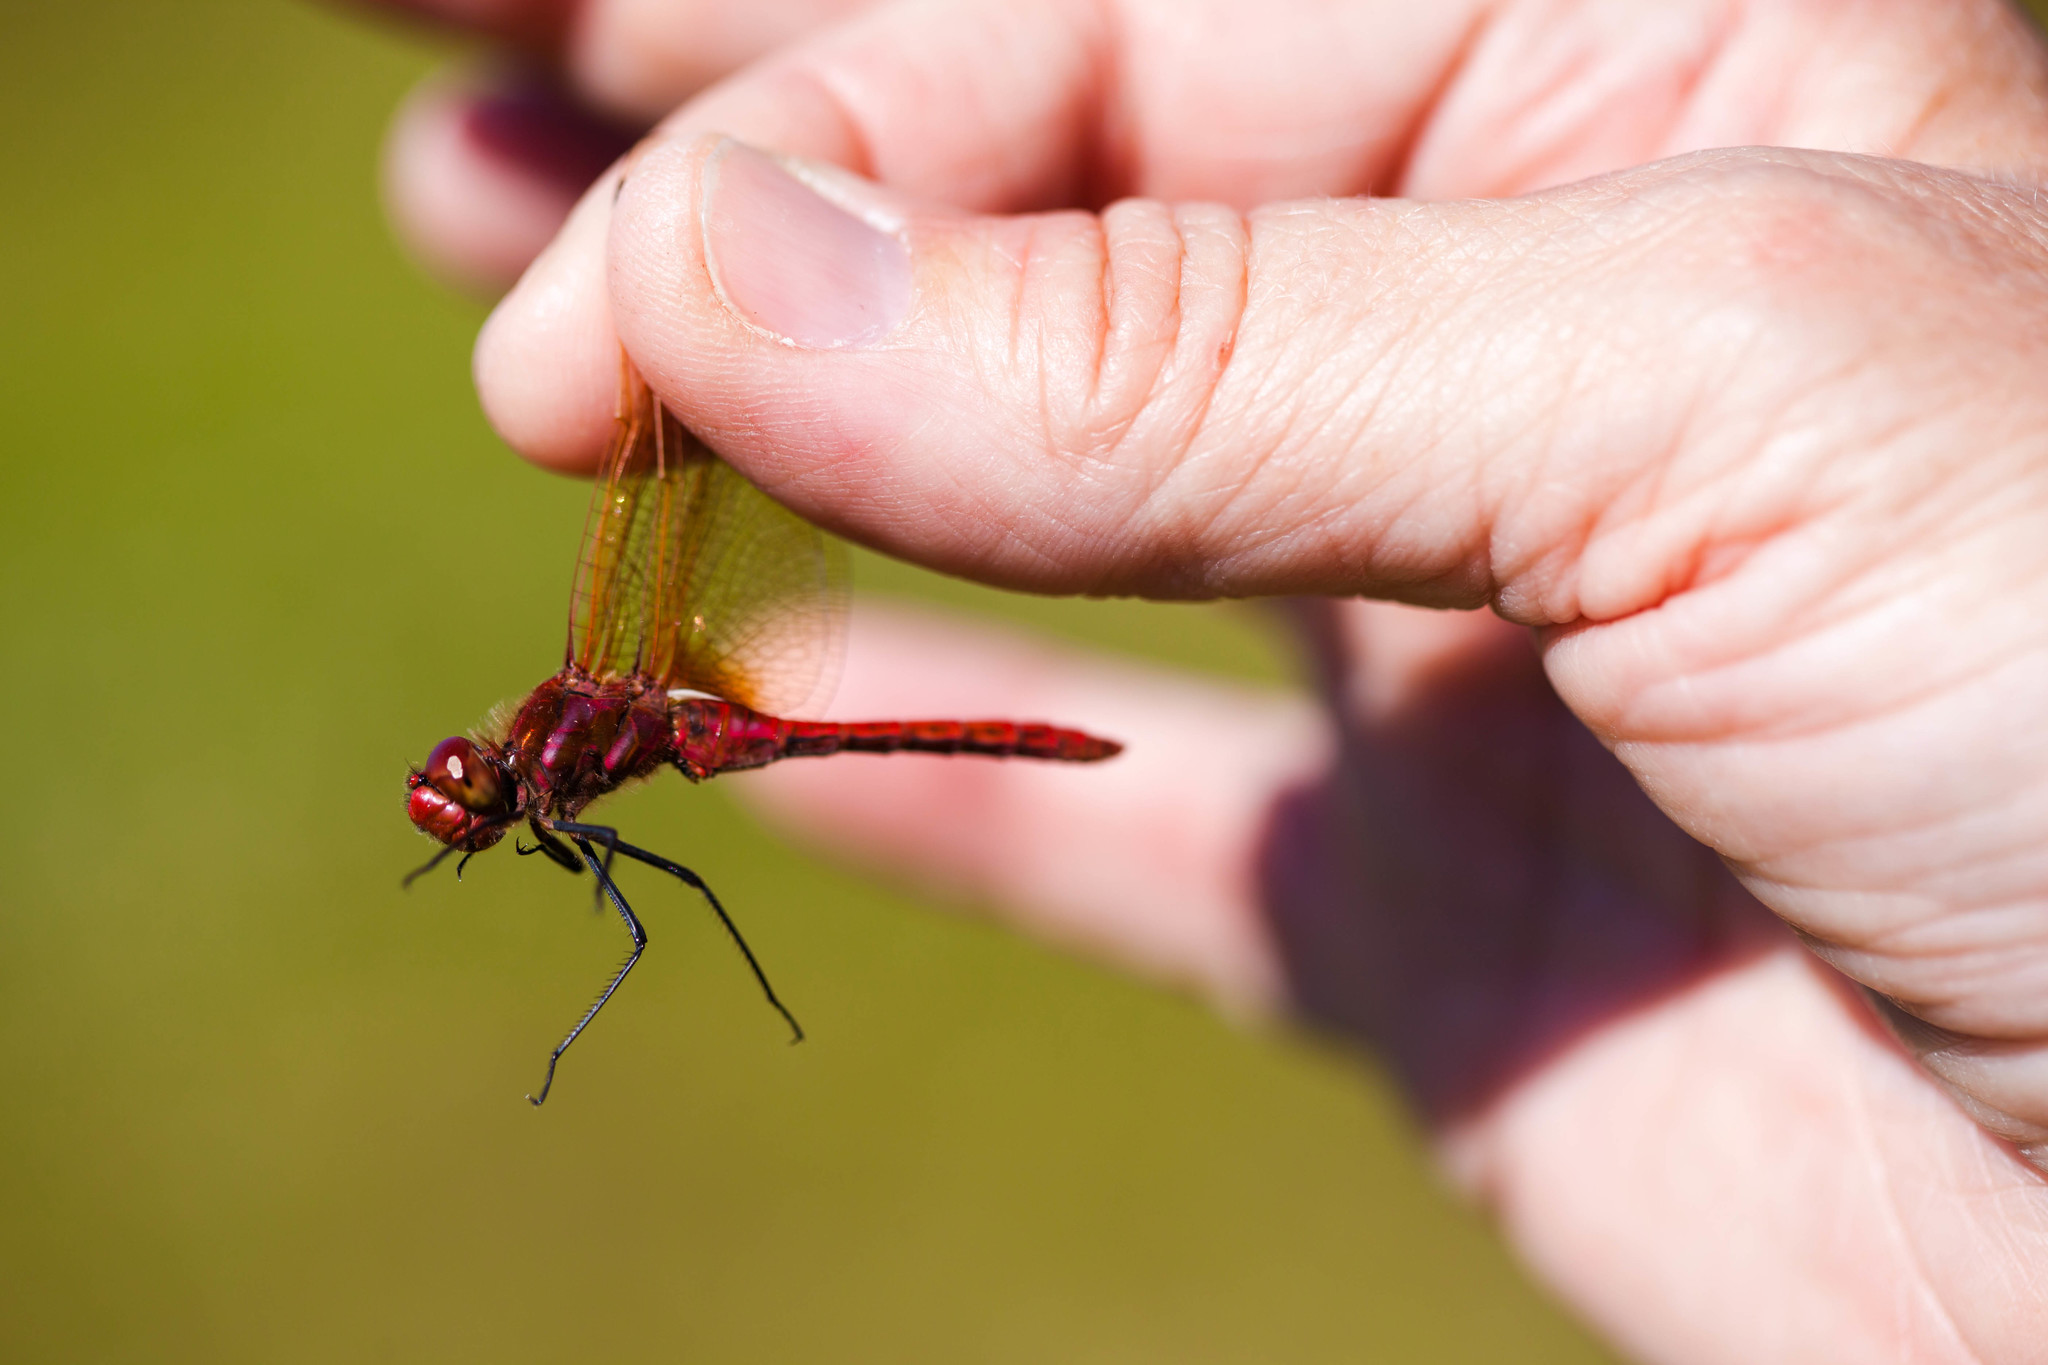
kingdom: Animalia
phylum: Arthropoda
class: Insecta
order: Odonata
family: Libellulidae
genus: Sympetrum
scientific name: Sympetrum madidum
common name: Red-veined meadowhawk
